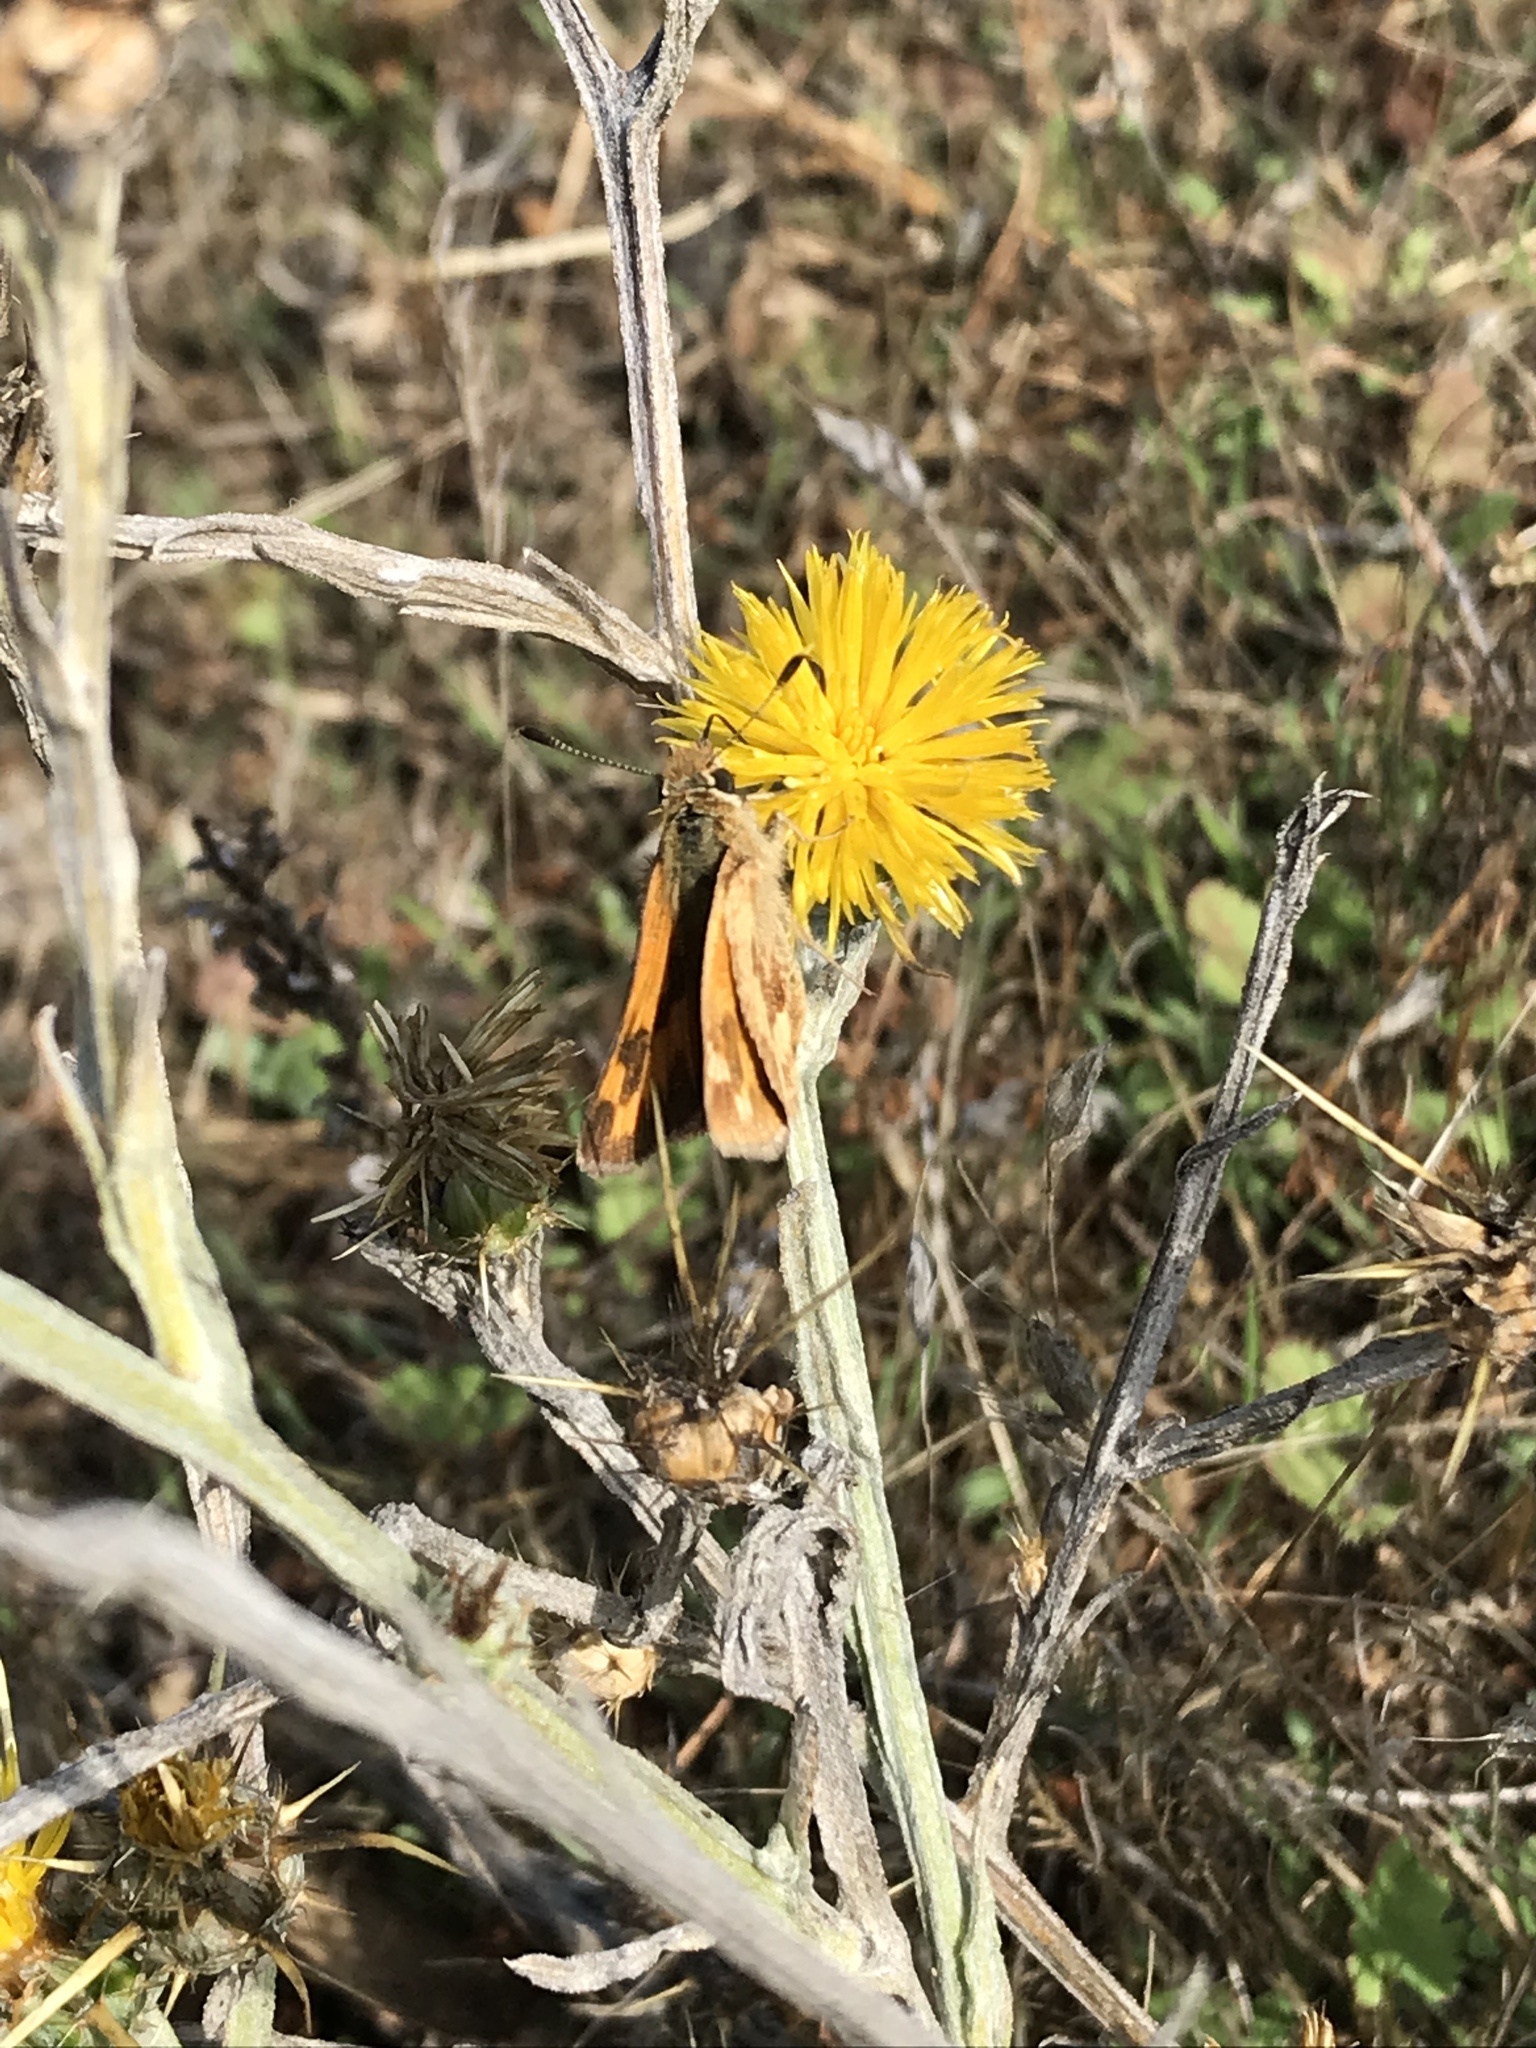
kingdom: Animalia
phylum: Arthropoda
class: Insecta
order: Lepidoptera
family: Hesperiidae
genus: Ochlodes
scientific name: Ochlodes sylvanoides
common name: Woodland skipper
